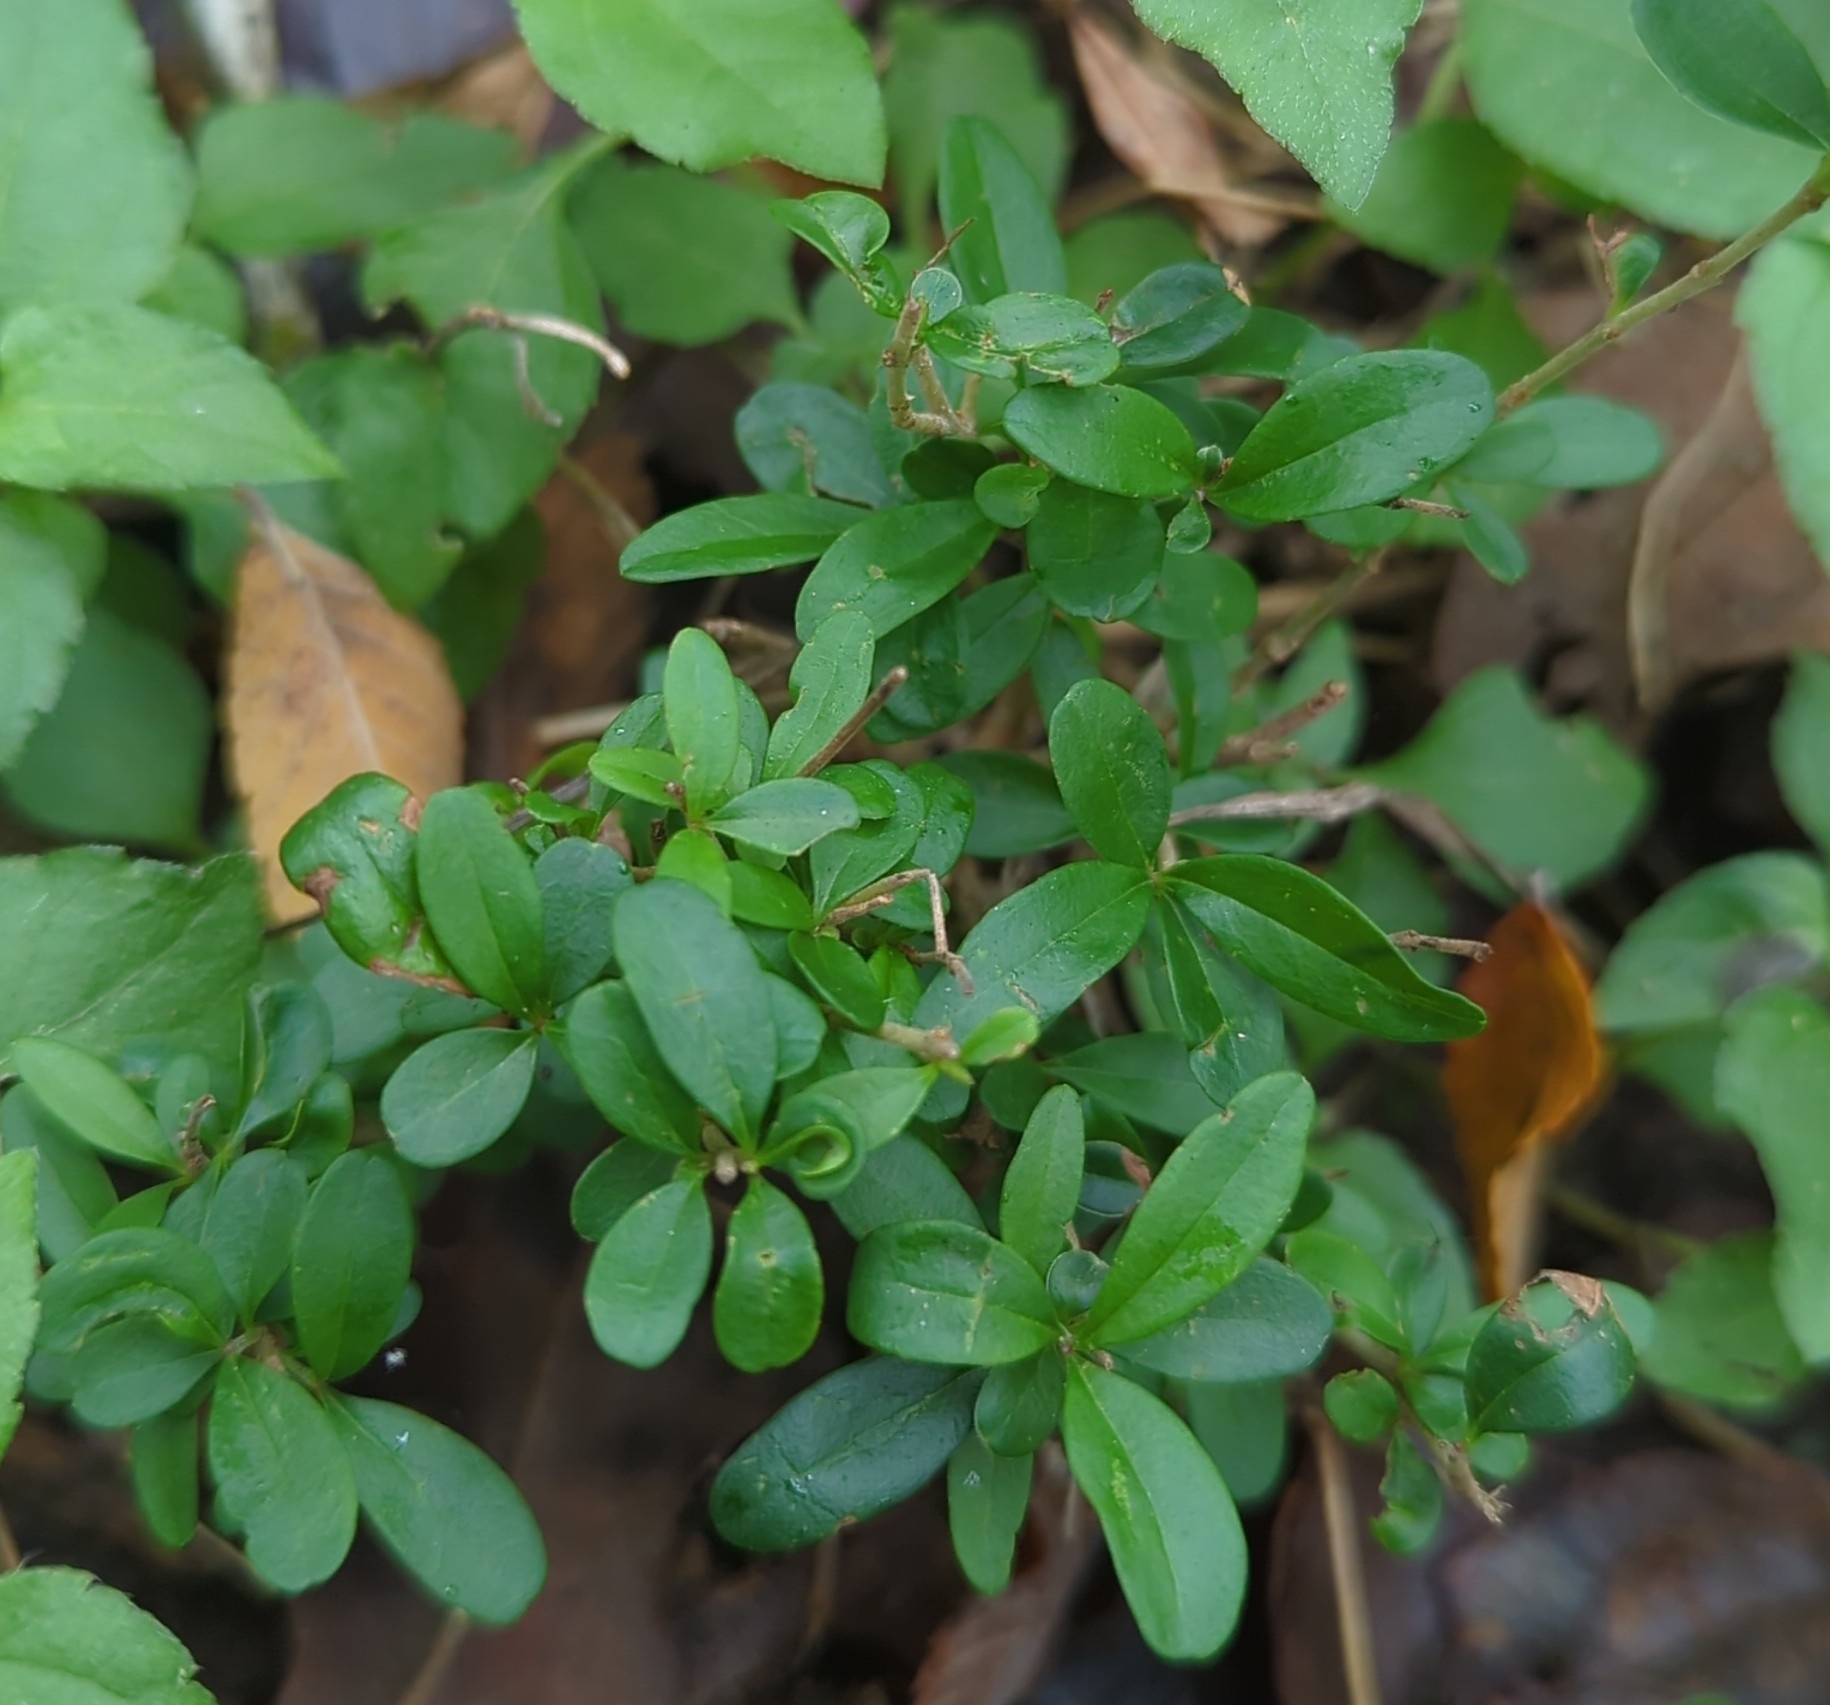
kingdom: Plantae
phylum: Tracheophyta
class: Magnoliopsida
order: Lamiales
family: Oleaceae
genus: Ligustrum
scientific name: Ligustrum quihoui
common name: Waxyleaf privet
